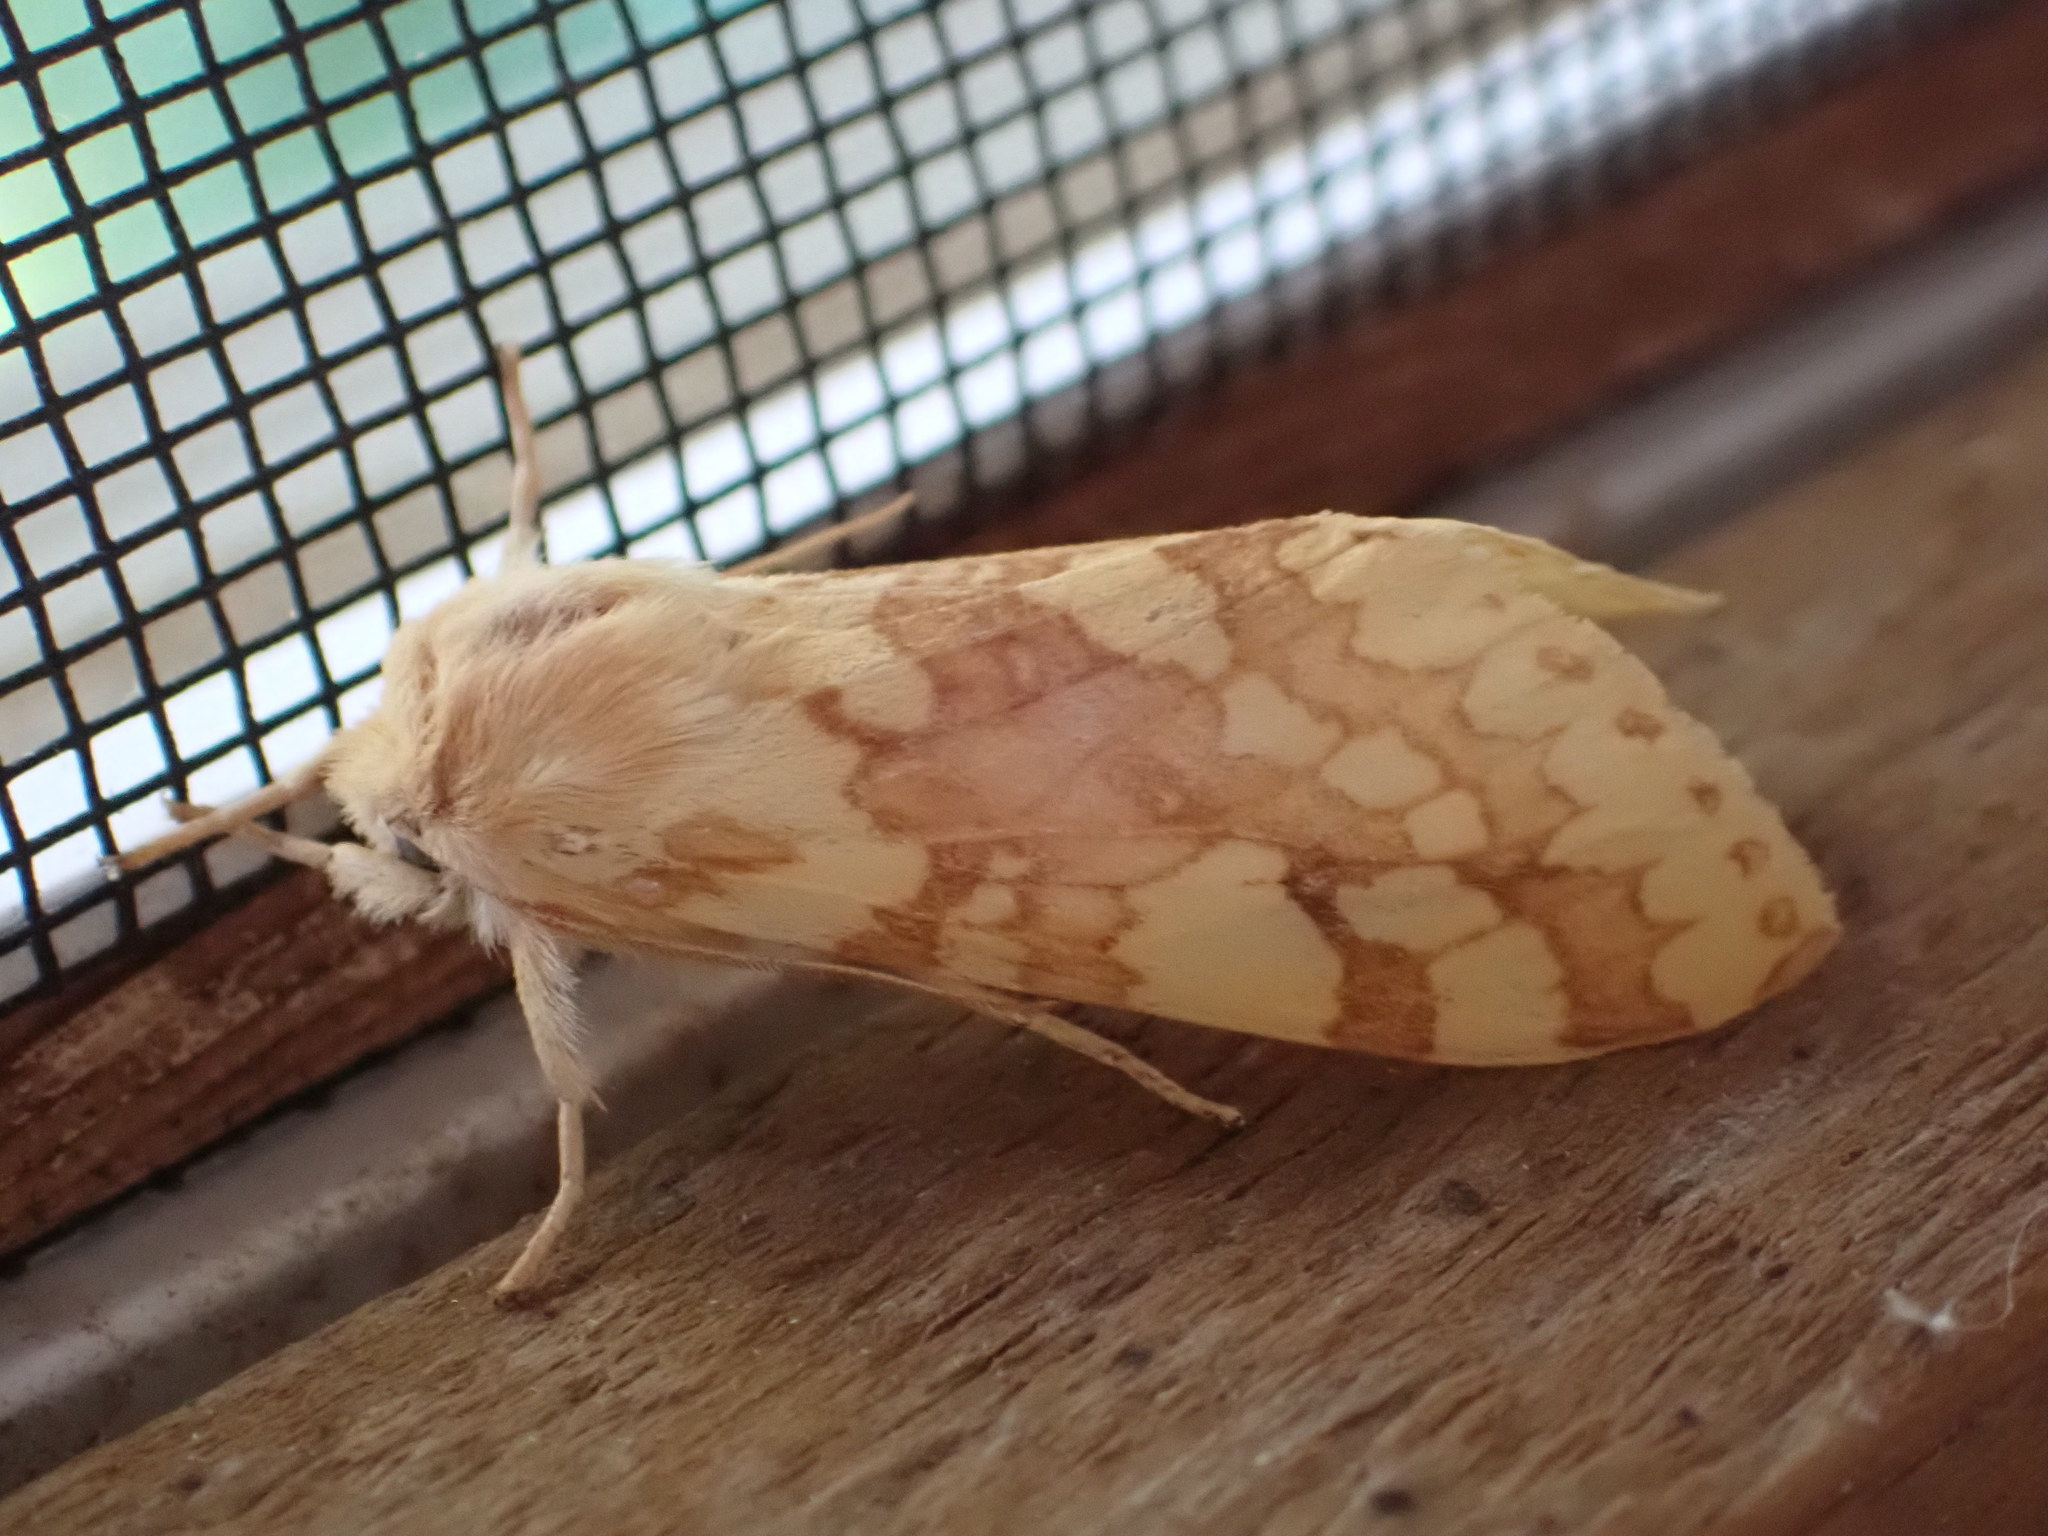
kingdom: Animalia
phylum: Arthropoda
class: Insecta
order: Lepidoptera
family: Erebidae
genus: Lophocampa
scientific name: Lophocampa maculata
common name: Spotted tussock moth
